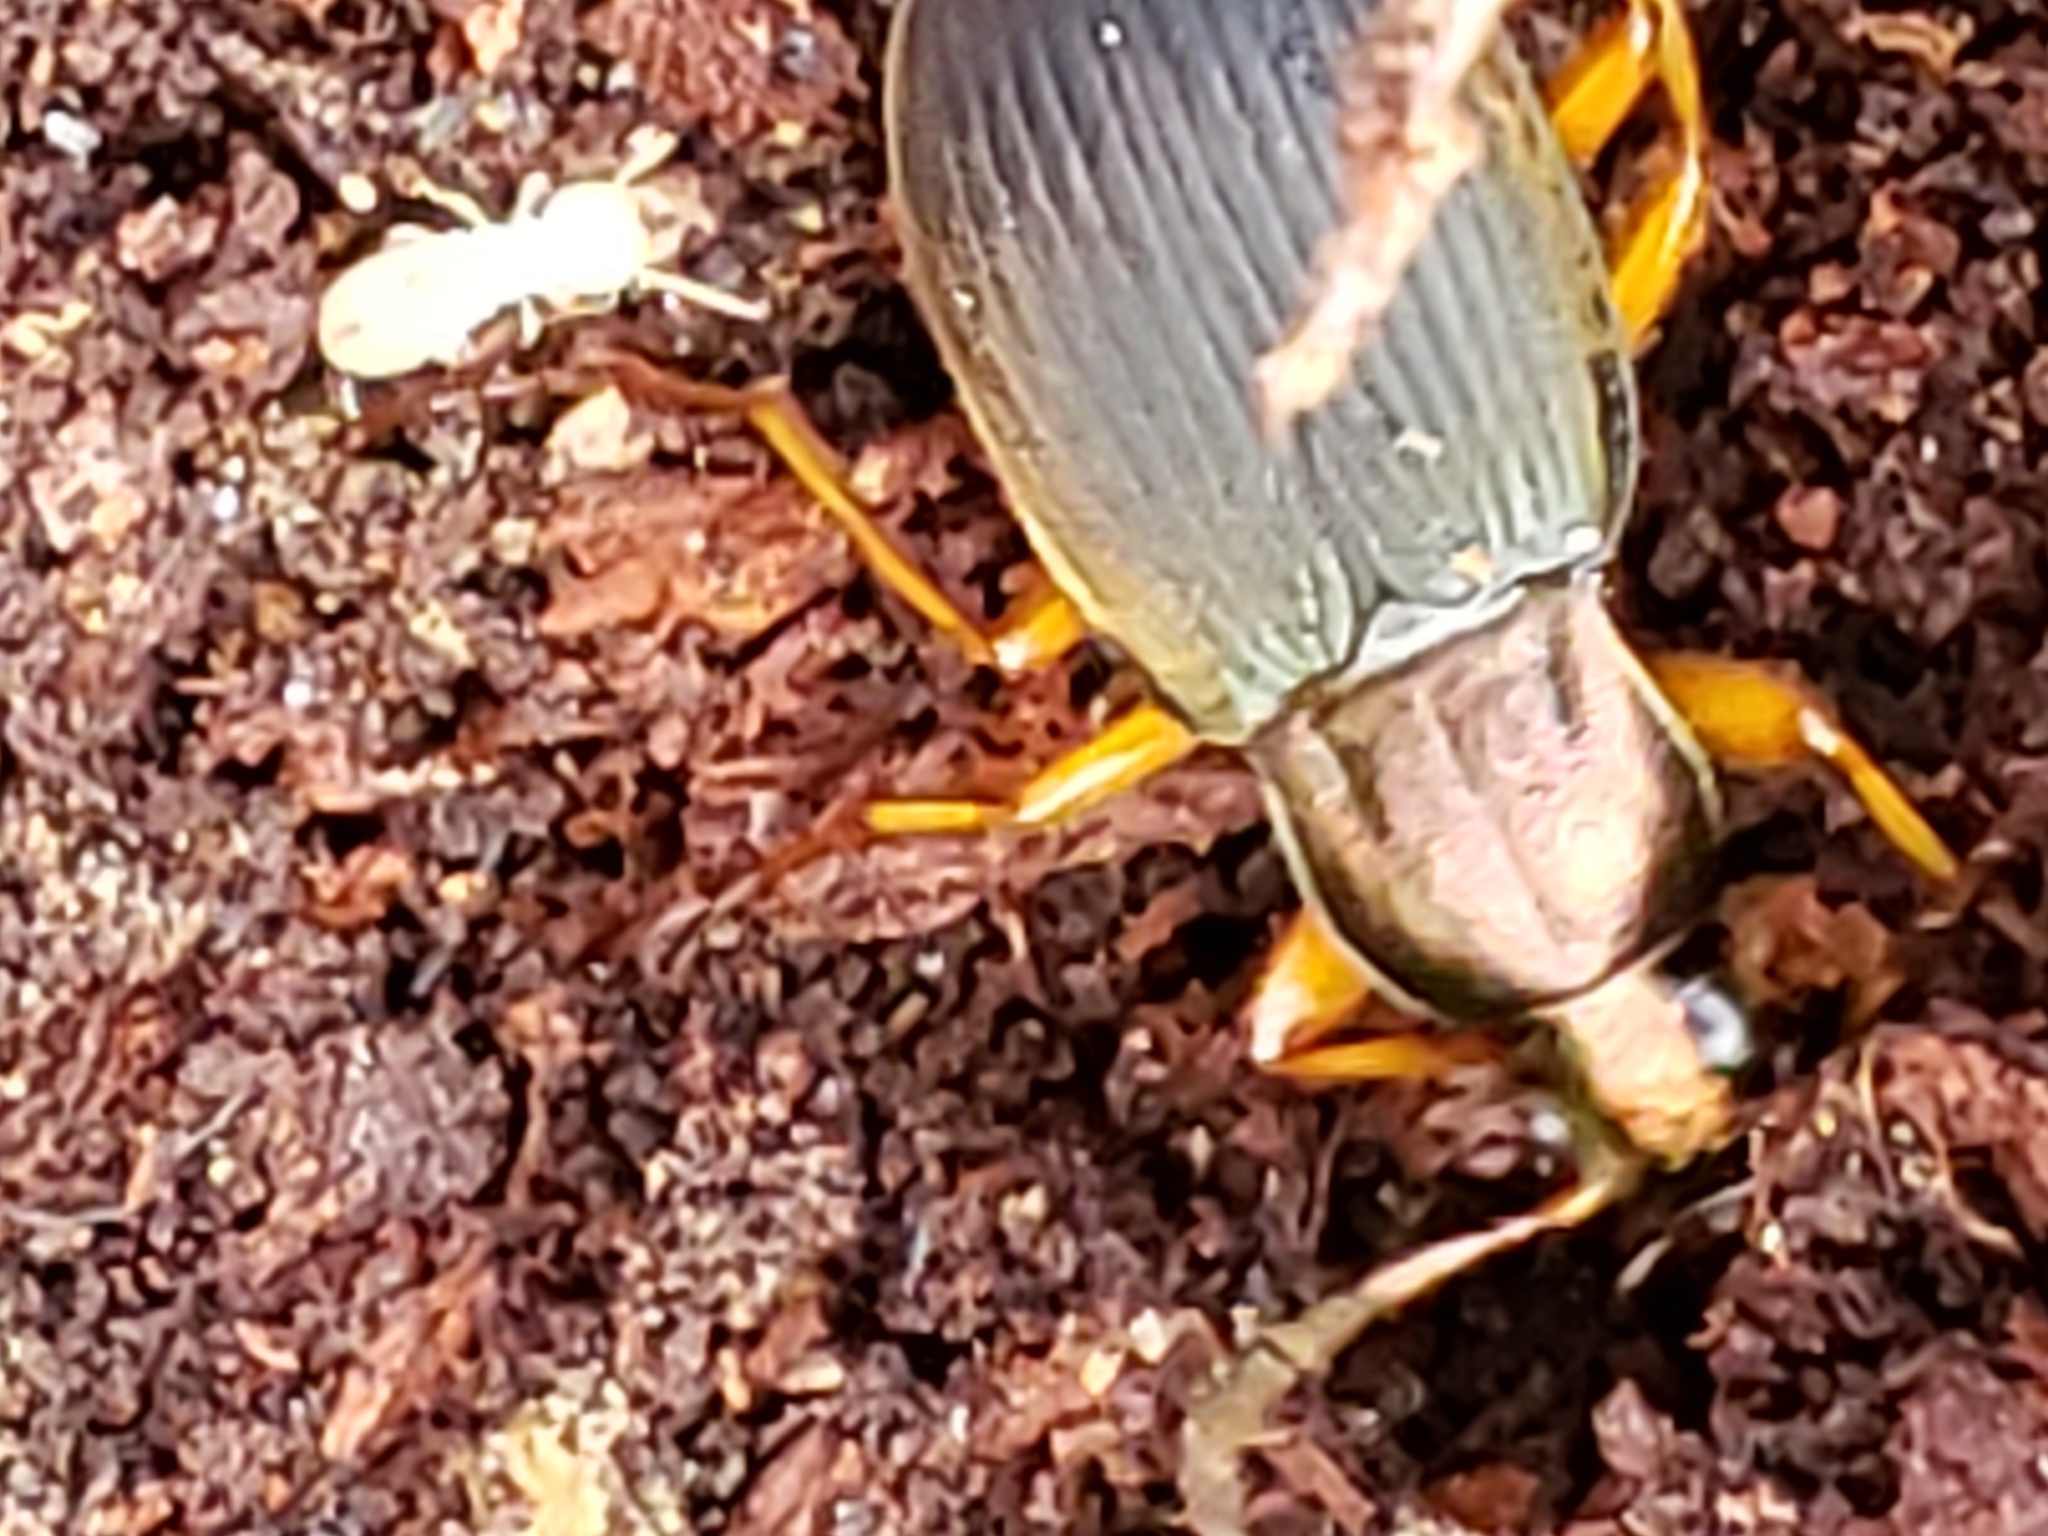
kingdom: Animalia
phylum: Arthropoda
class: Insecta
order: Coleoptera
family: Carabidae
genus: Chlaenius
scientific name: Chlaenius aestivus
